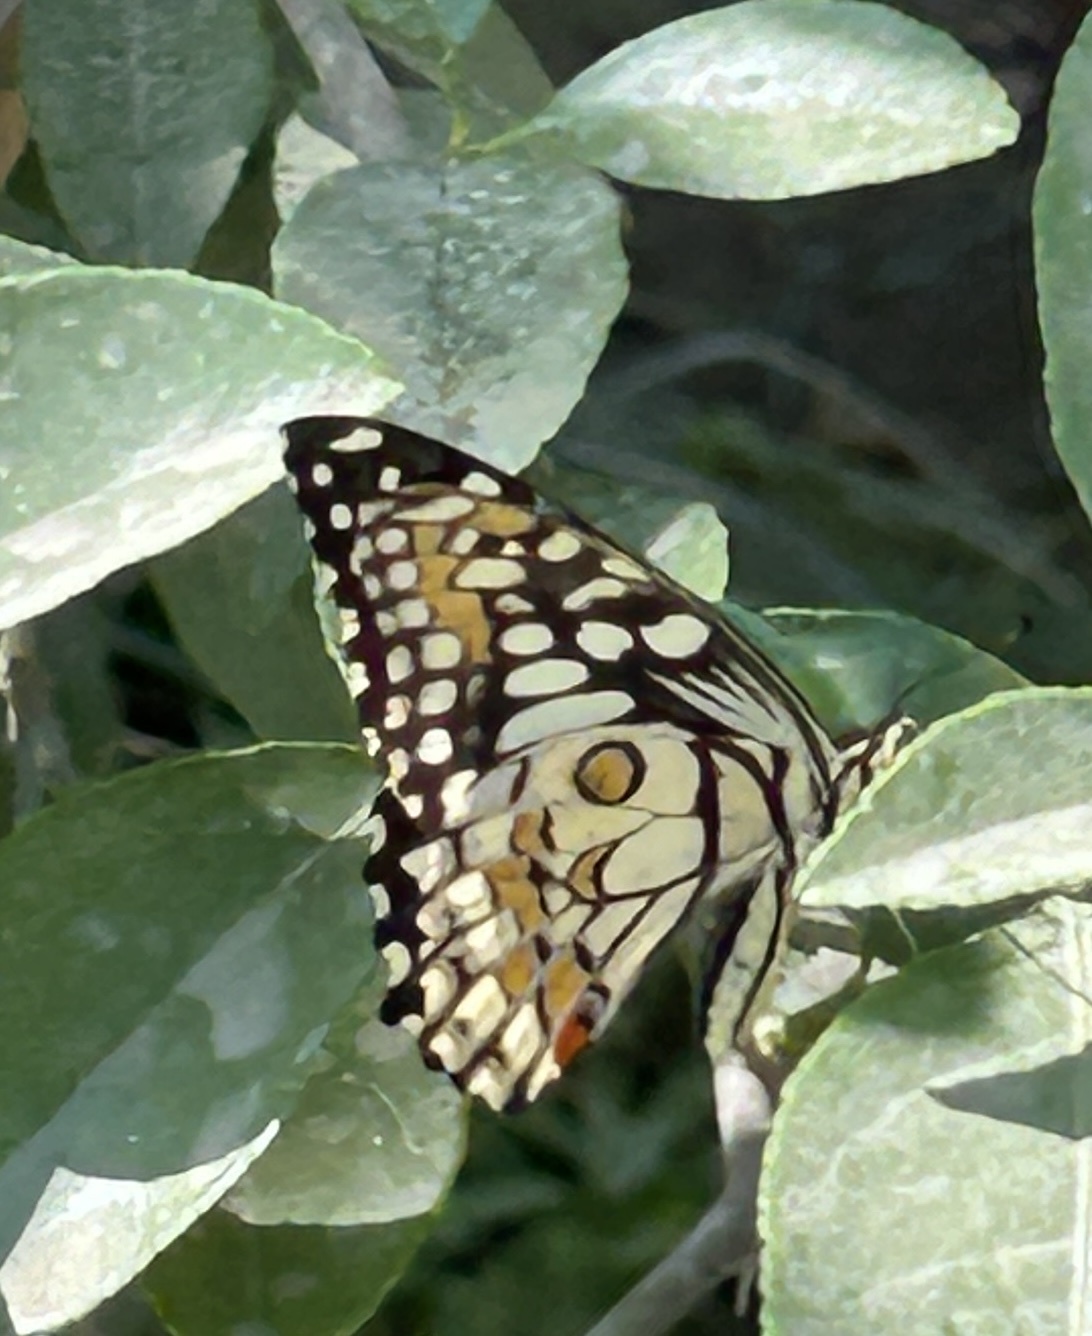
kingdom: Animalia
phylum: Arthropoda
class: Insecta
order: Lepidoptera
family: Papilionidae
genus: Papilio
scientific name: Papilio demoleus
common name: Lime butterfly
